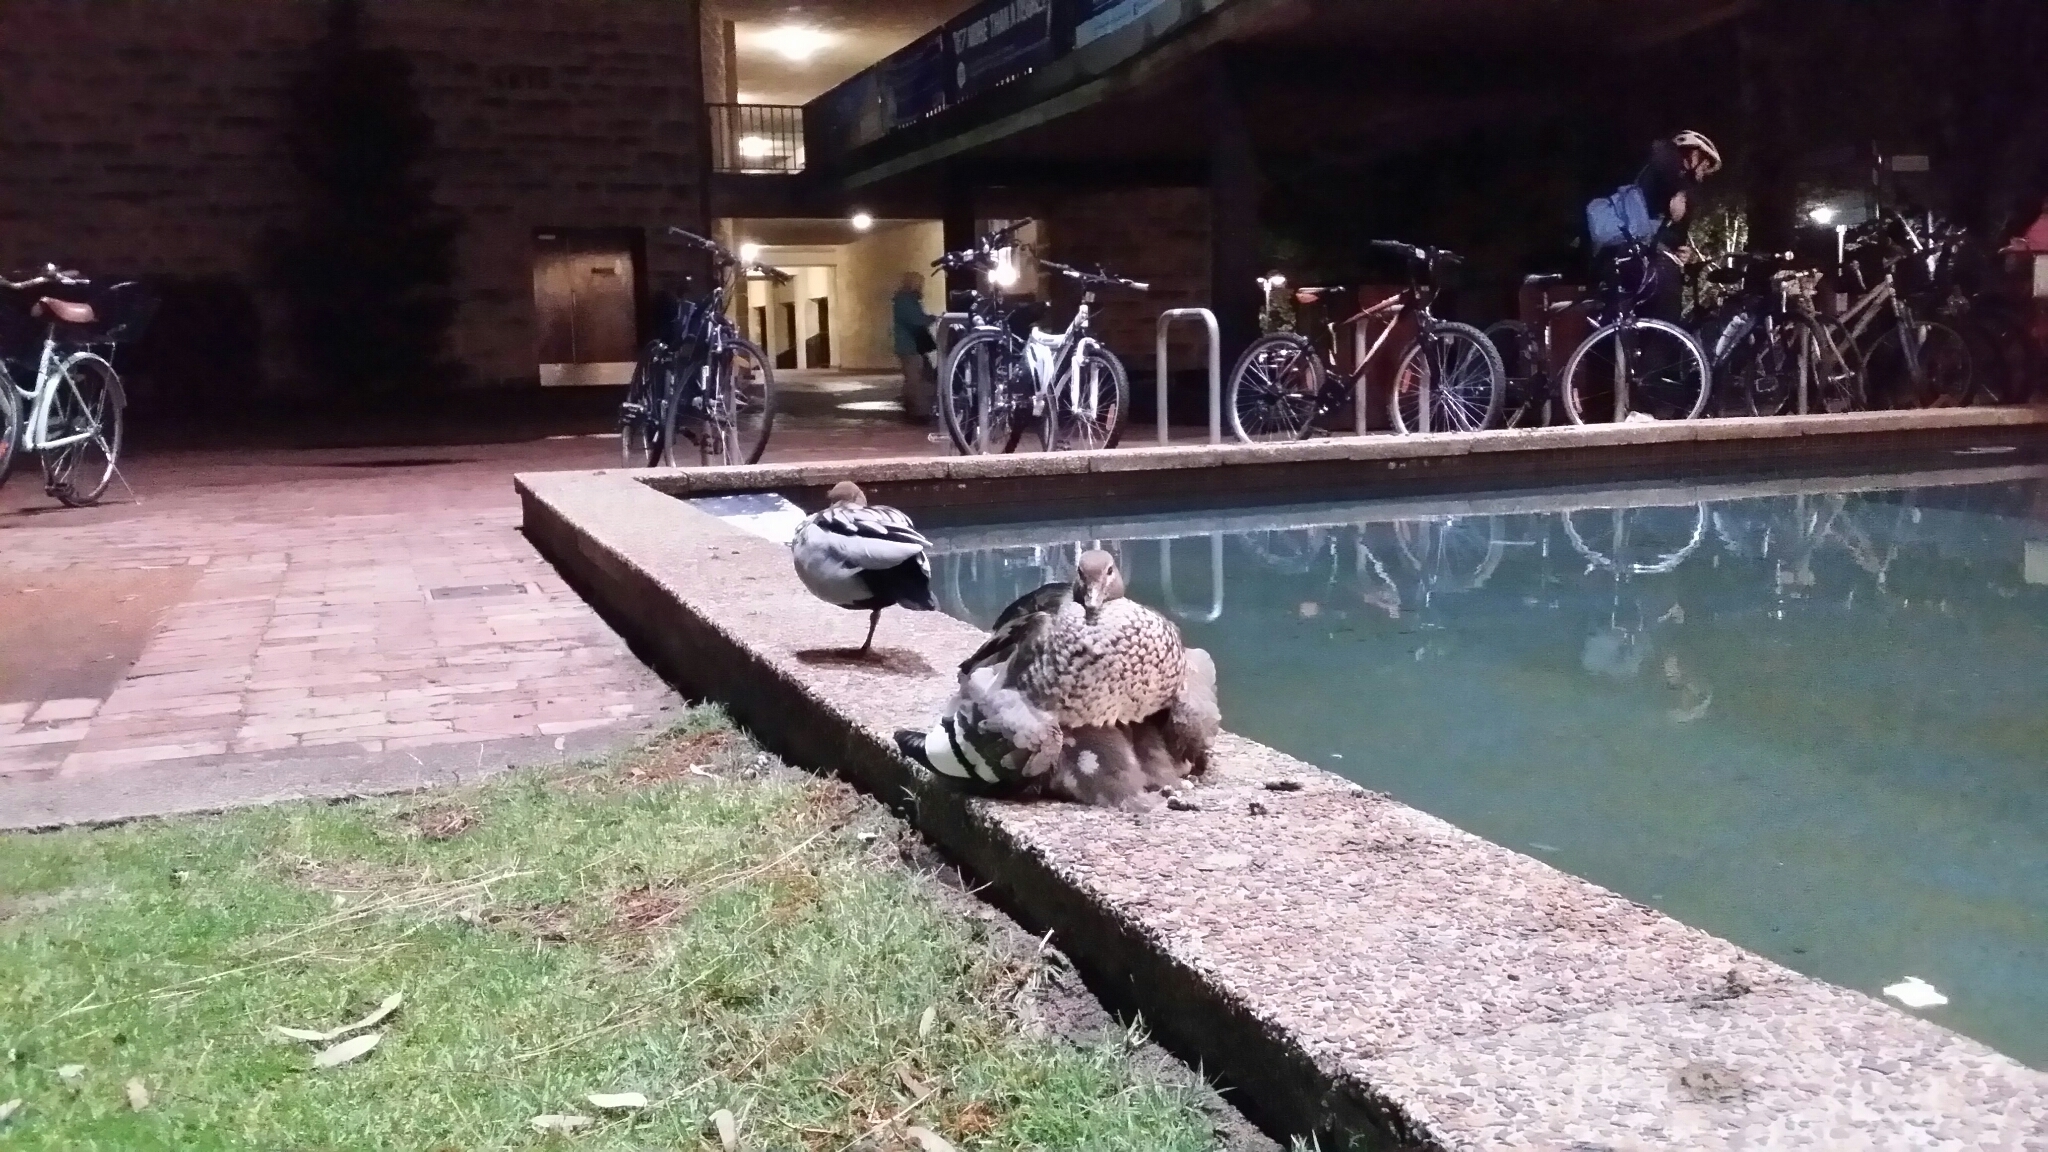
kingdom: Animalia
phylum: Chordata
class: Aves
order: Anseriformes
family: Anatidae
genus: Chenonetta
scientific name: Chenonetta jubata
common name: Maned duck
